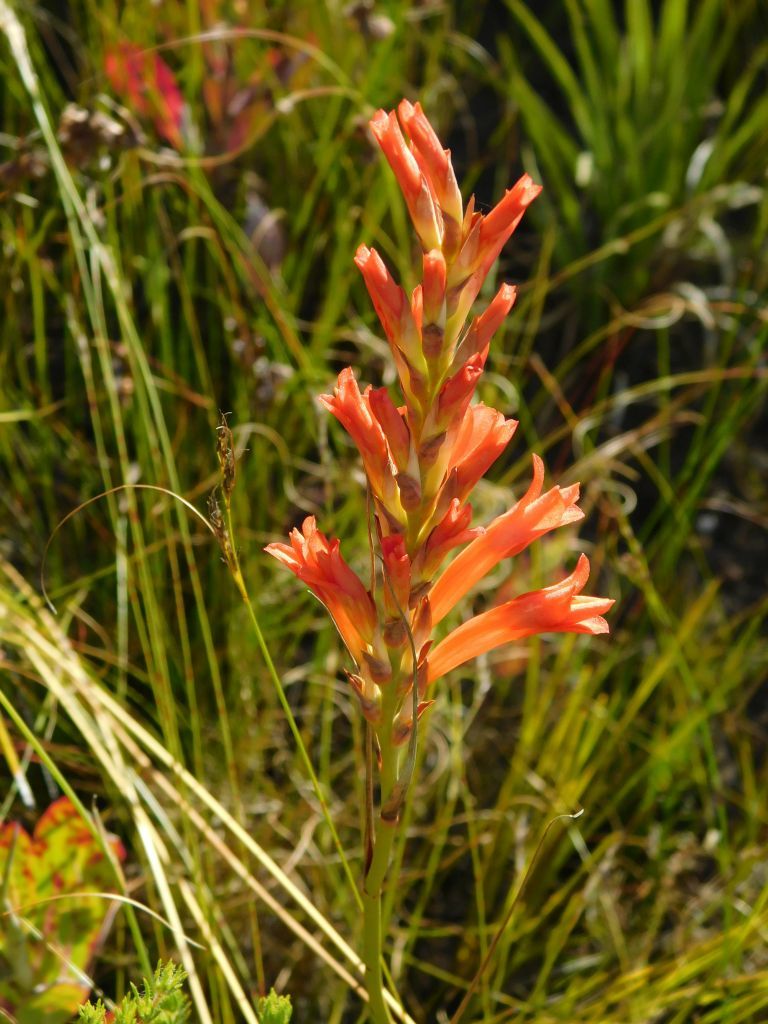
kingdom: Plantae
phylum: Tracheophyta
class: Liliopsida
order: Asparagales
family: Iridaceae
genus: Tritoniopsis
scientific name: Tritoniopsis triticea
